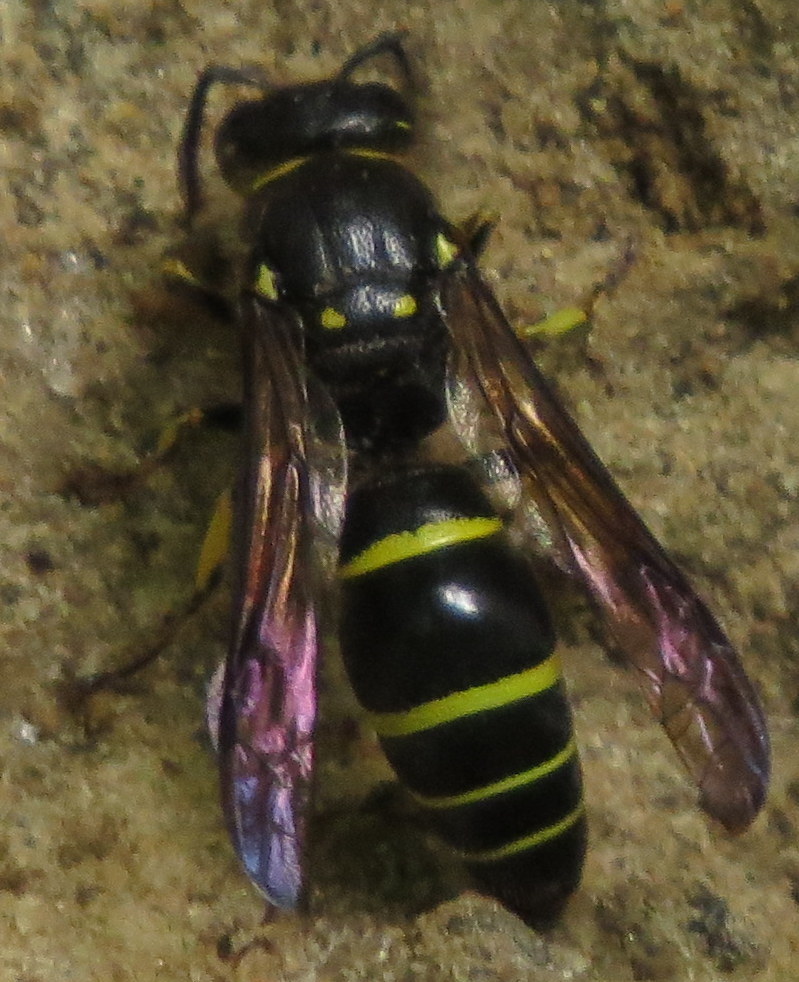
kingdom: Animalia
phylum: Arthropoda
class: Insecta
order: Hymenoptera
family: Vespidae
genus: Ancistrocerus
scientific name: Ancistrocerus
